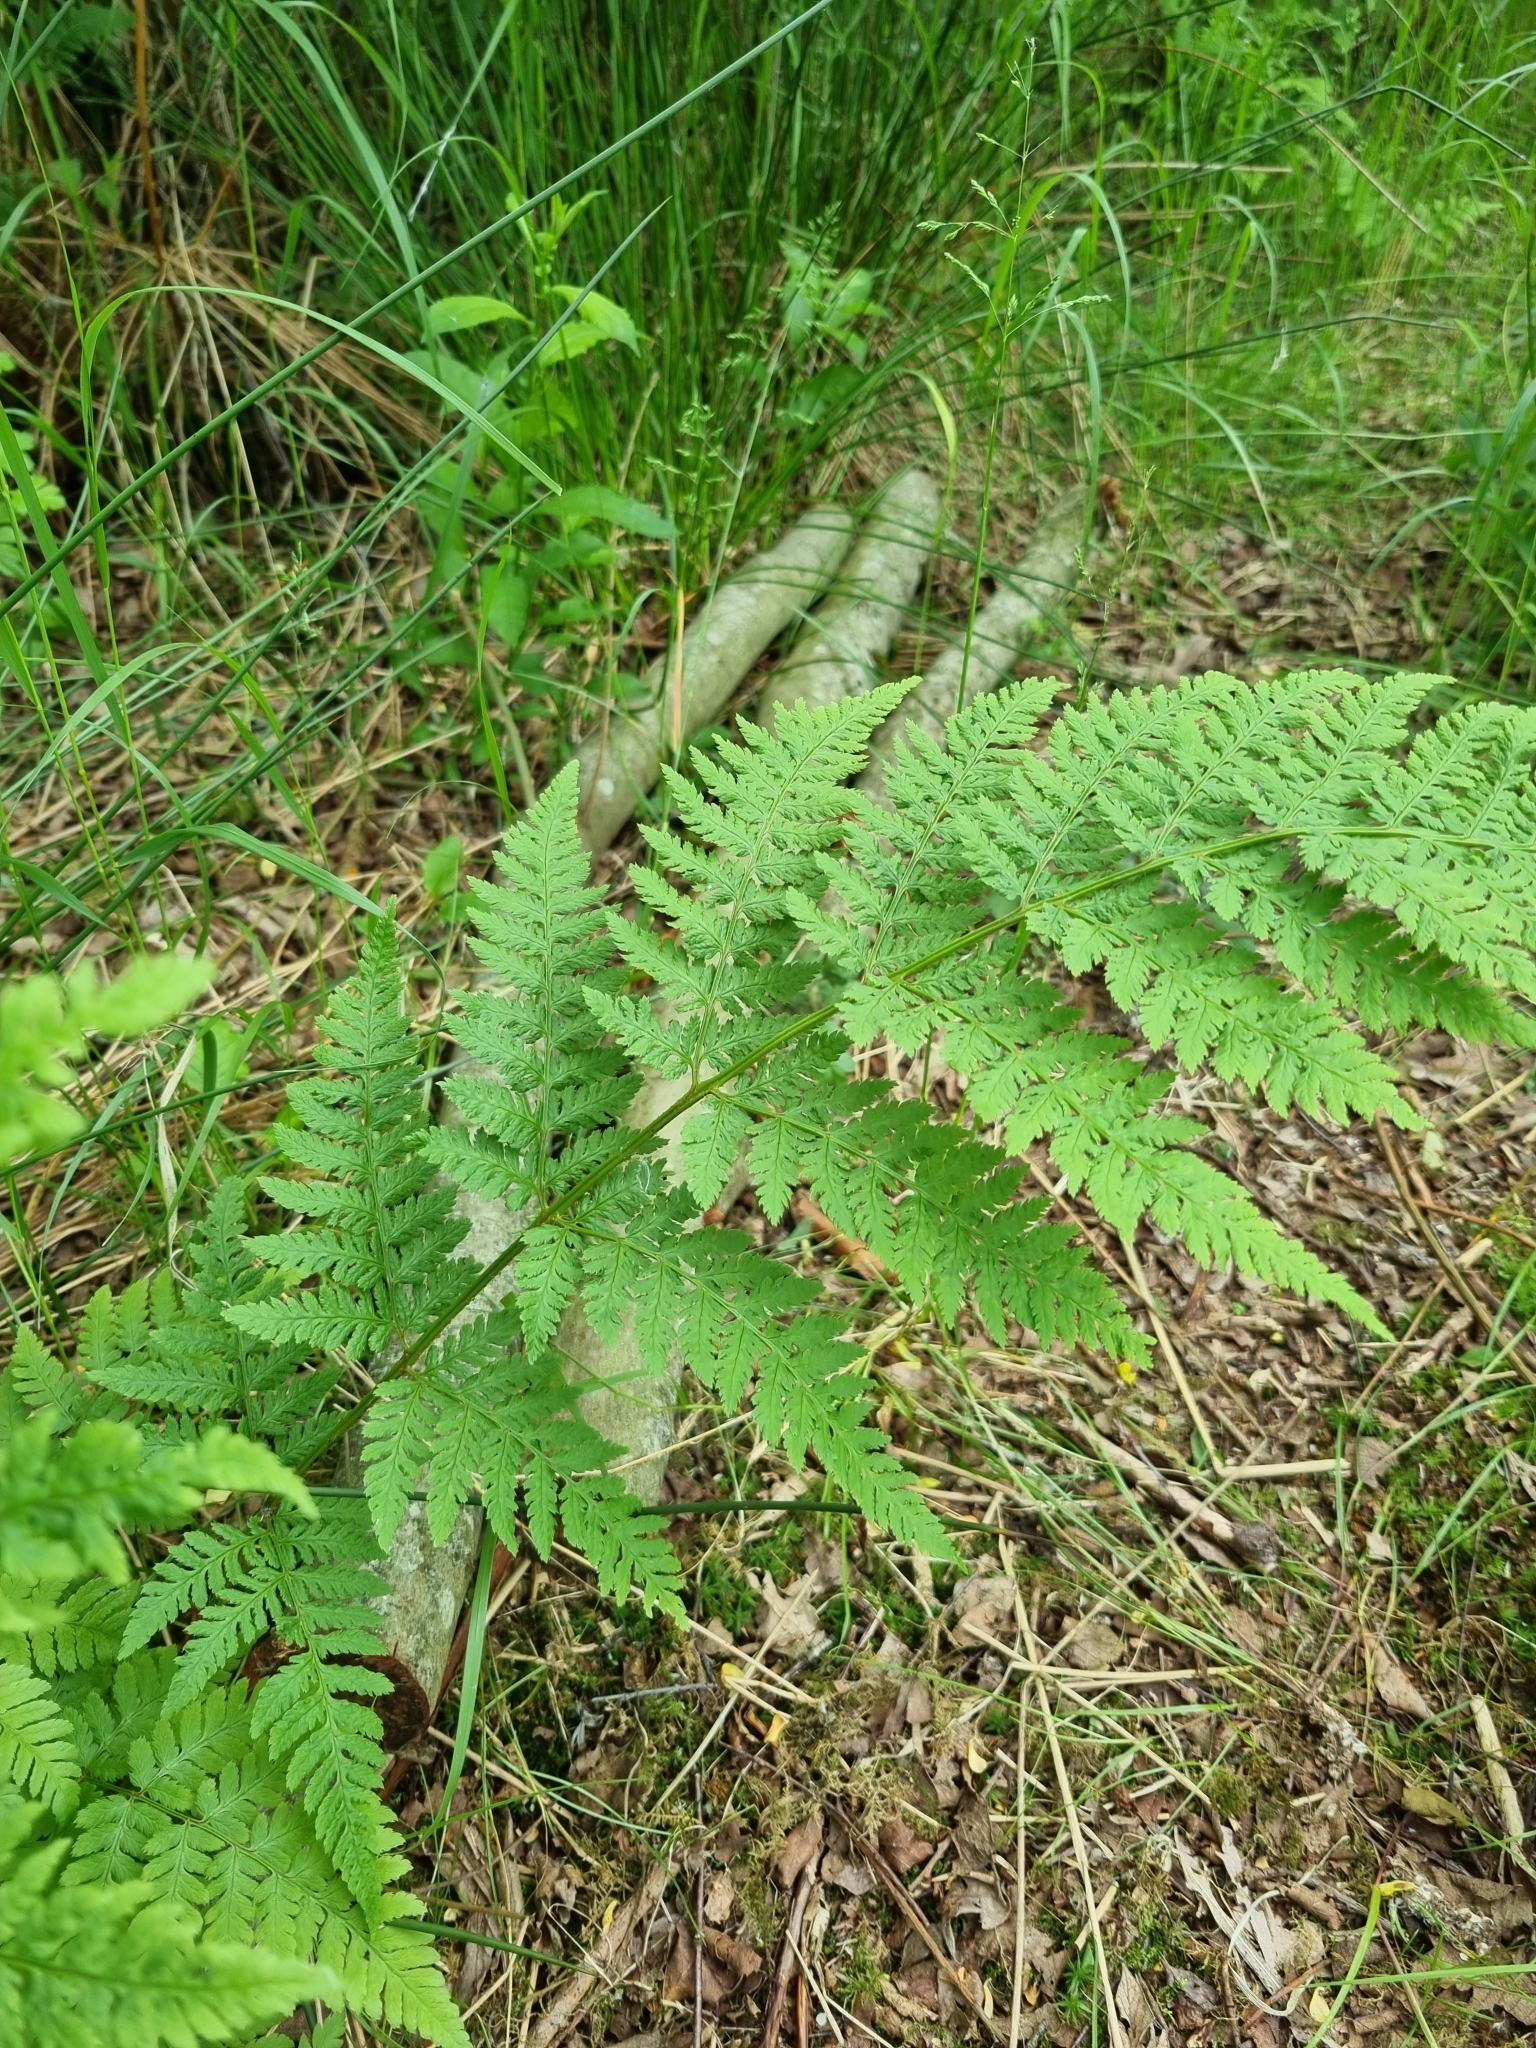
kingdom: Plantae
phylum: Tracheophyta
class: Polypodiopsida
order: Polypodiales
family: Dryopteridaceae
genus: Dryopteris
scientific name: Dryopteris carthusiana
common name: Narrow buckler-fern
